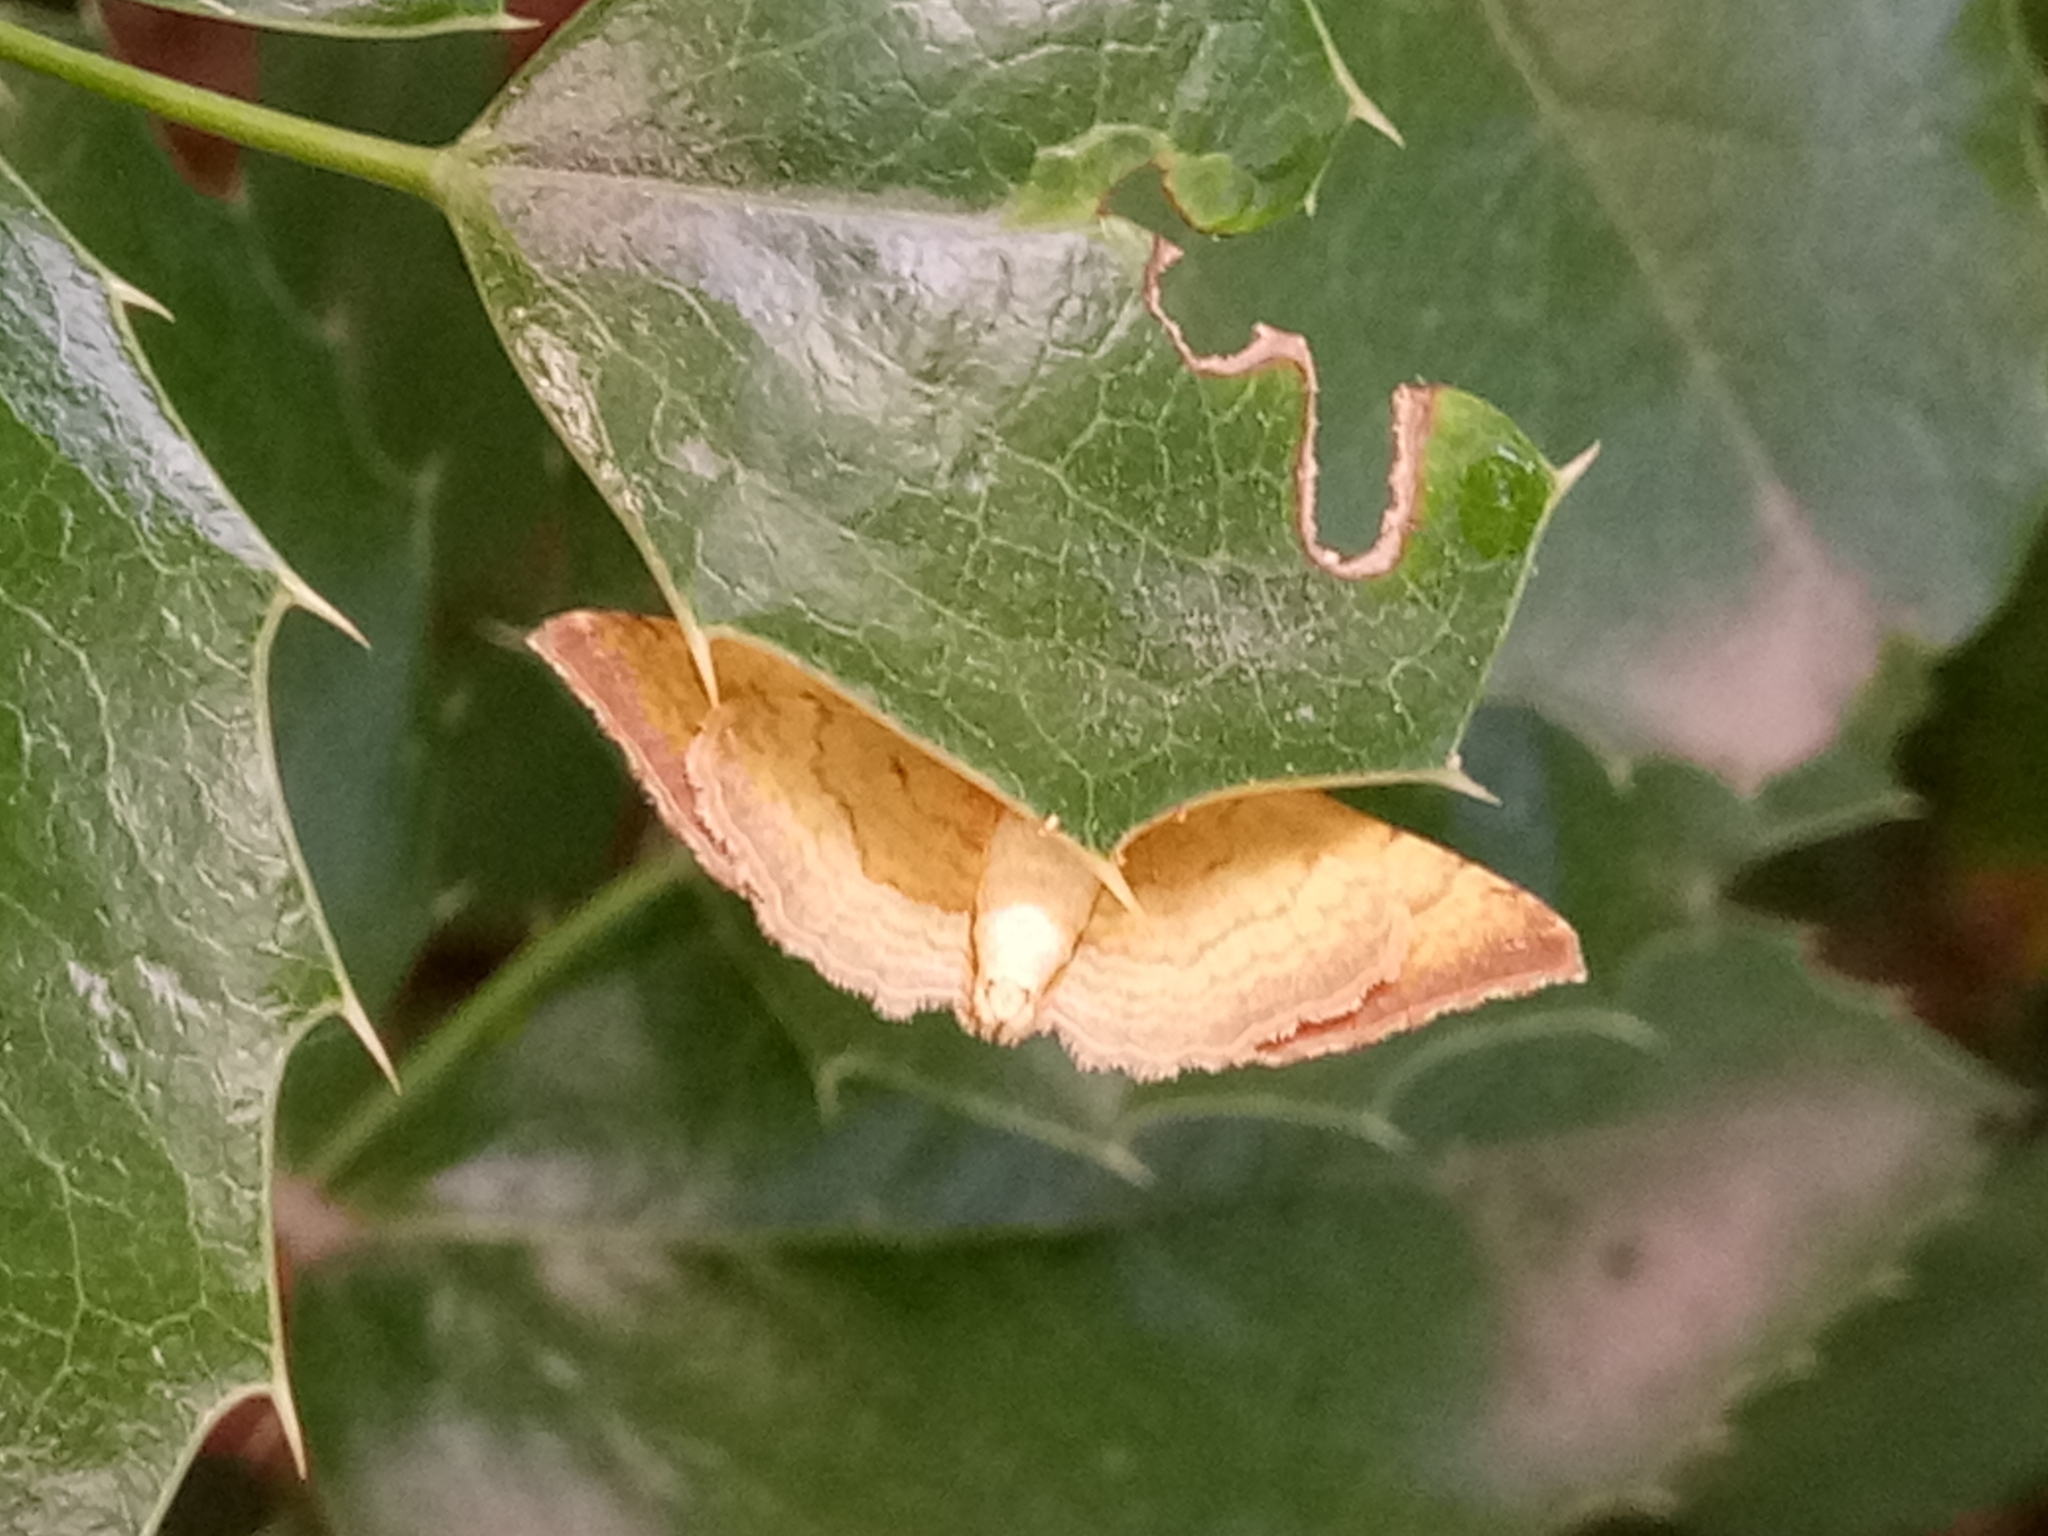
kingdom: Animalia
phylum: Arthropoda
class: Insecta
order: Lepidoptera
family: Geometridae
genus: Camptogramma
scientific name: Camptogramma bilineata
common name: Yellow shell
